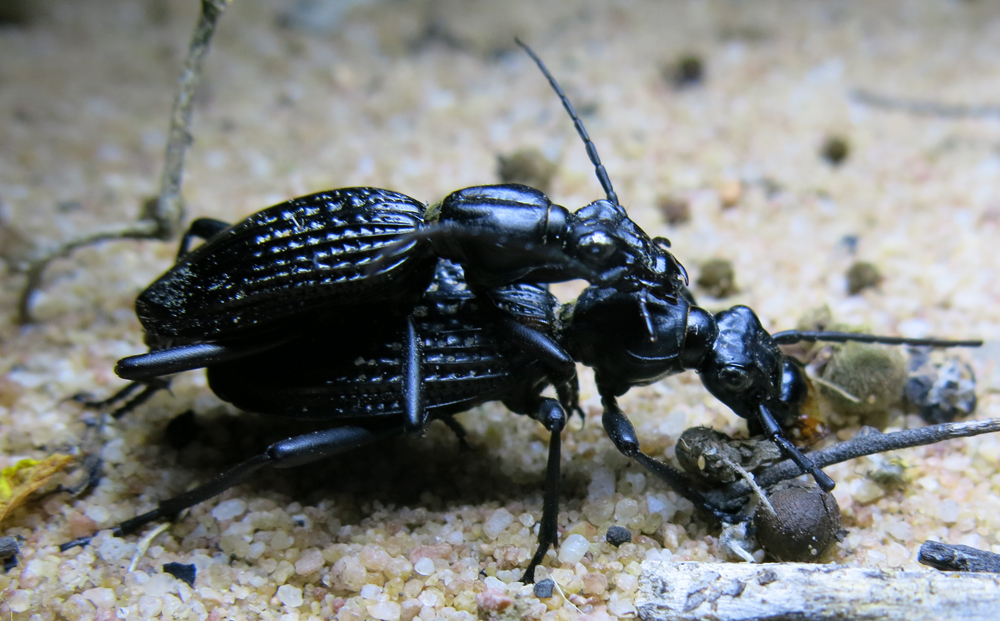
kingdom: Animalia
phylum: Arthropoda
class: Insecta
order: Coleoptera
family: Carabidae
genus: Cypholoba
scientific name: Cypholoba alveolata
